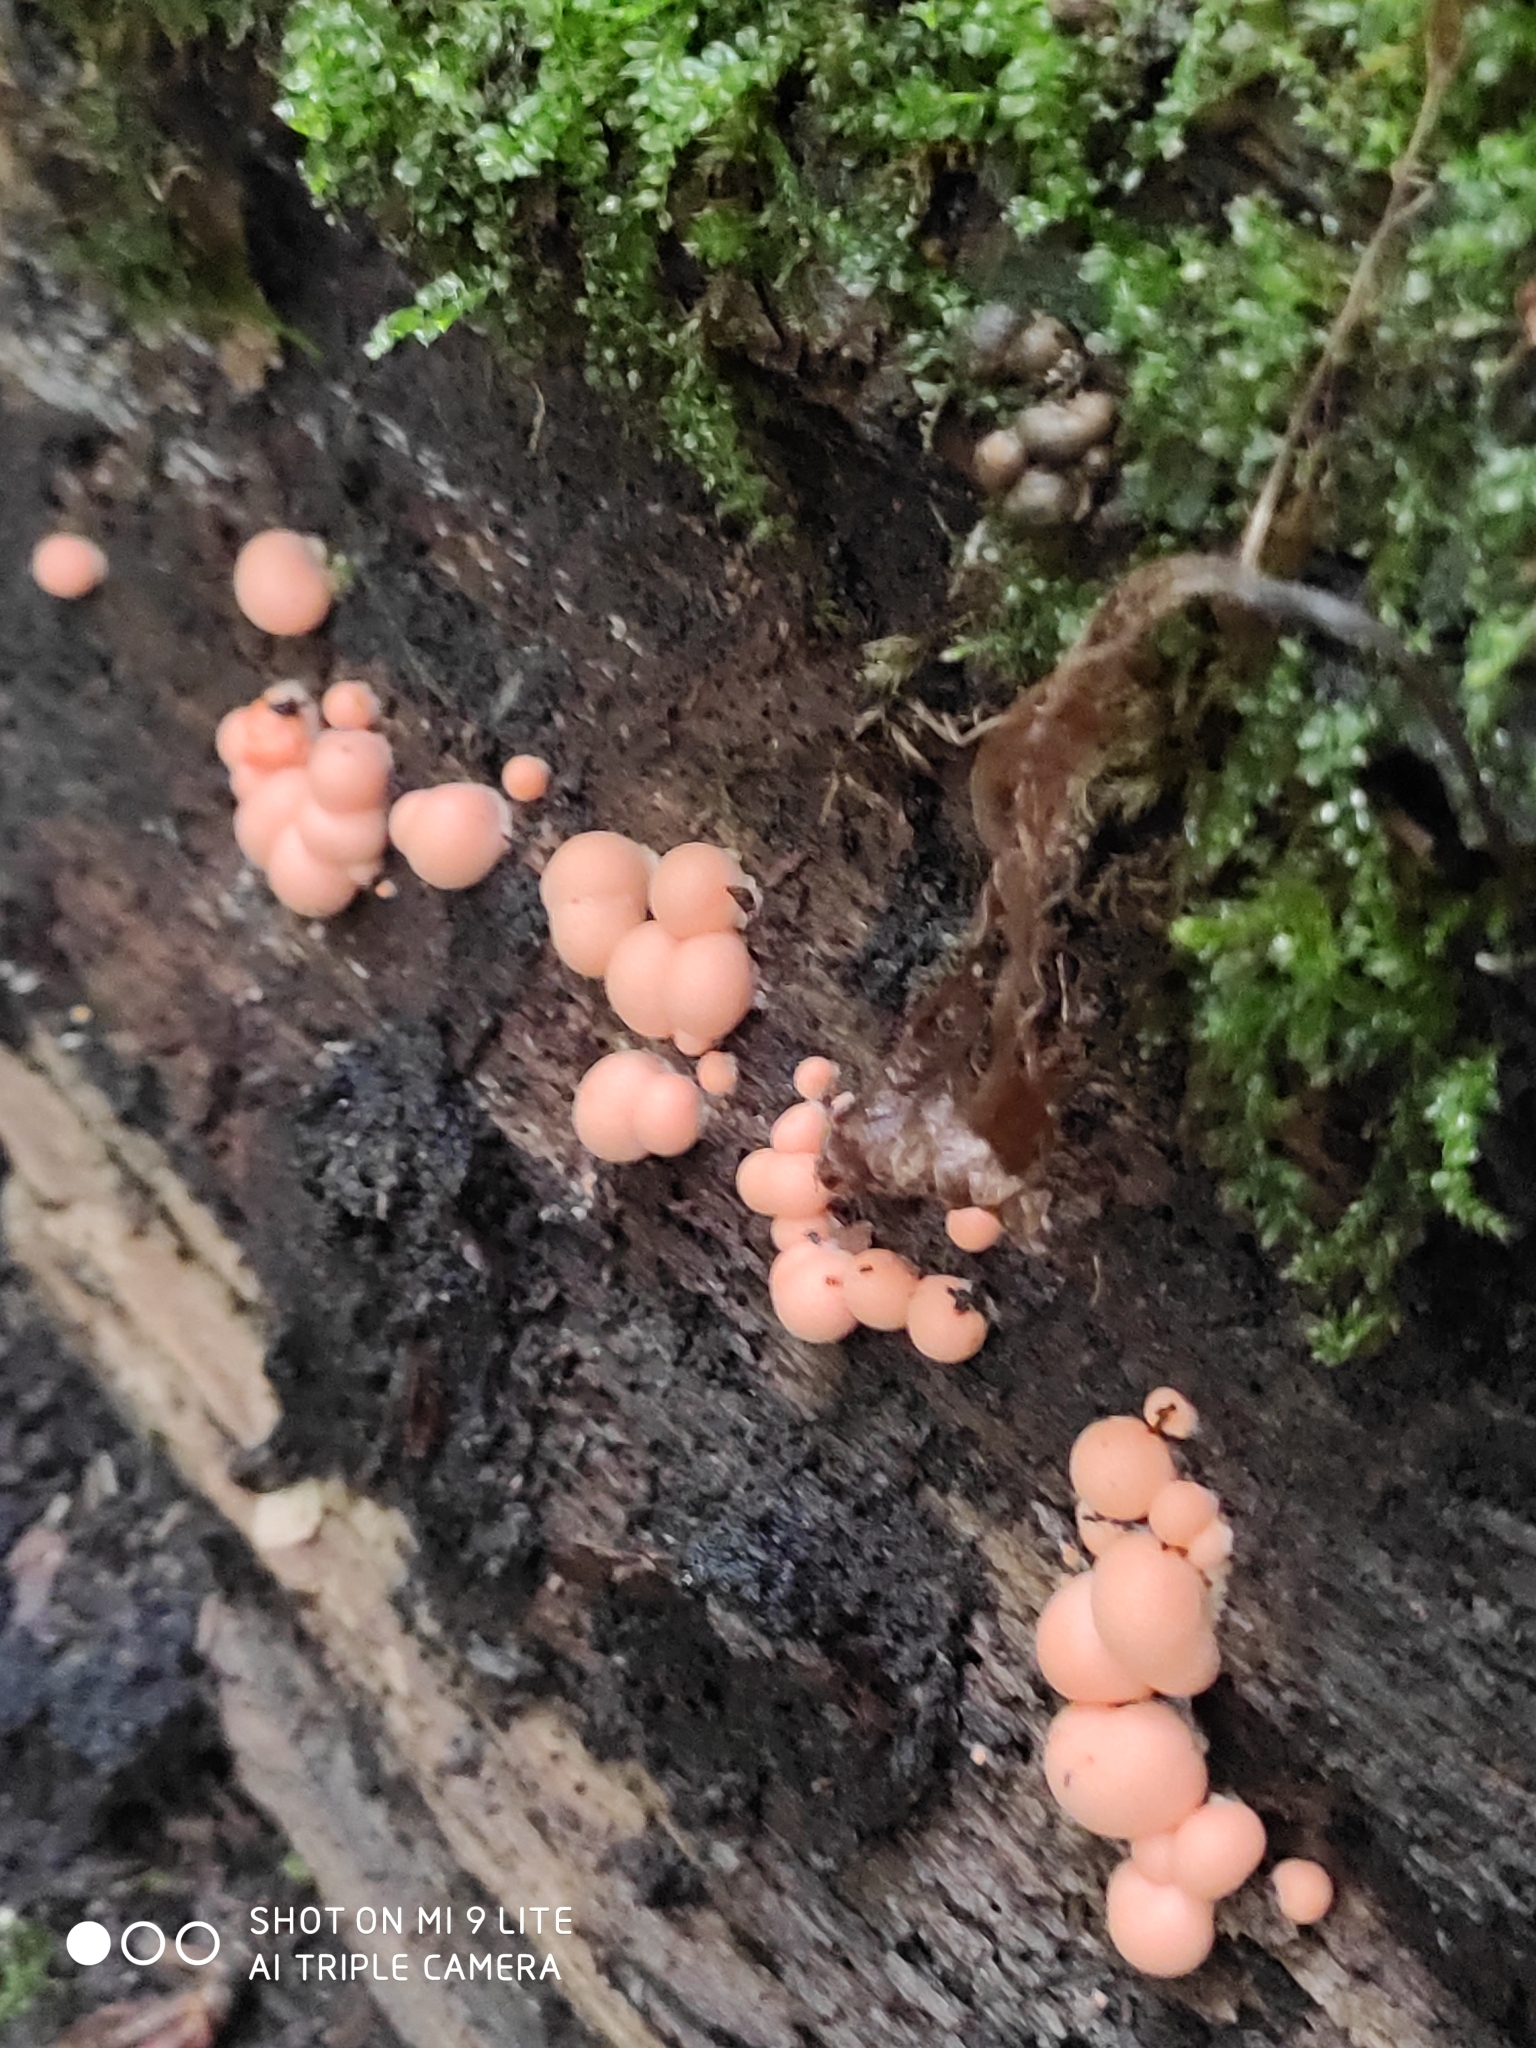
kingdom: Protozoa
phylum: Mycetozoa
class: Myxomycetes
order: Cribrariales
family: Tubiferaceae
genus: Lycogala
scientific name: Lycogala epidendrum
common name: Wolf's milk
